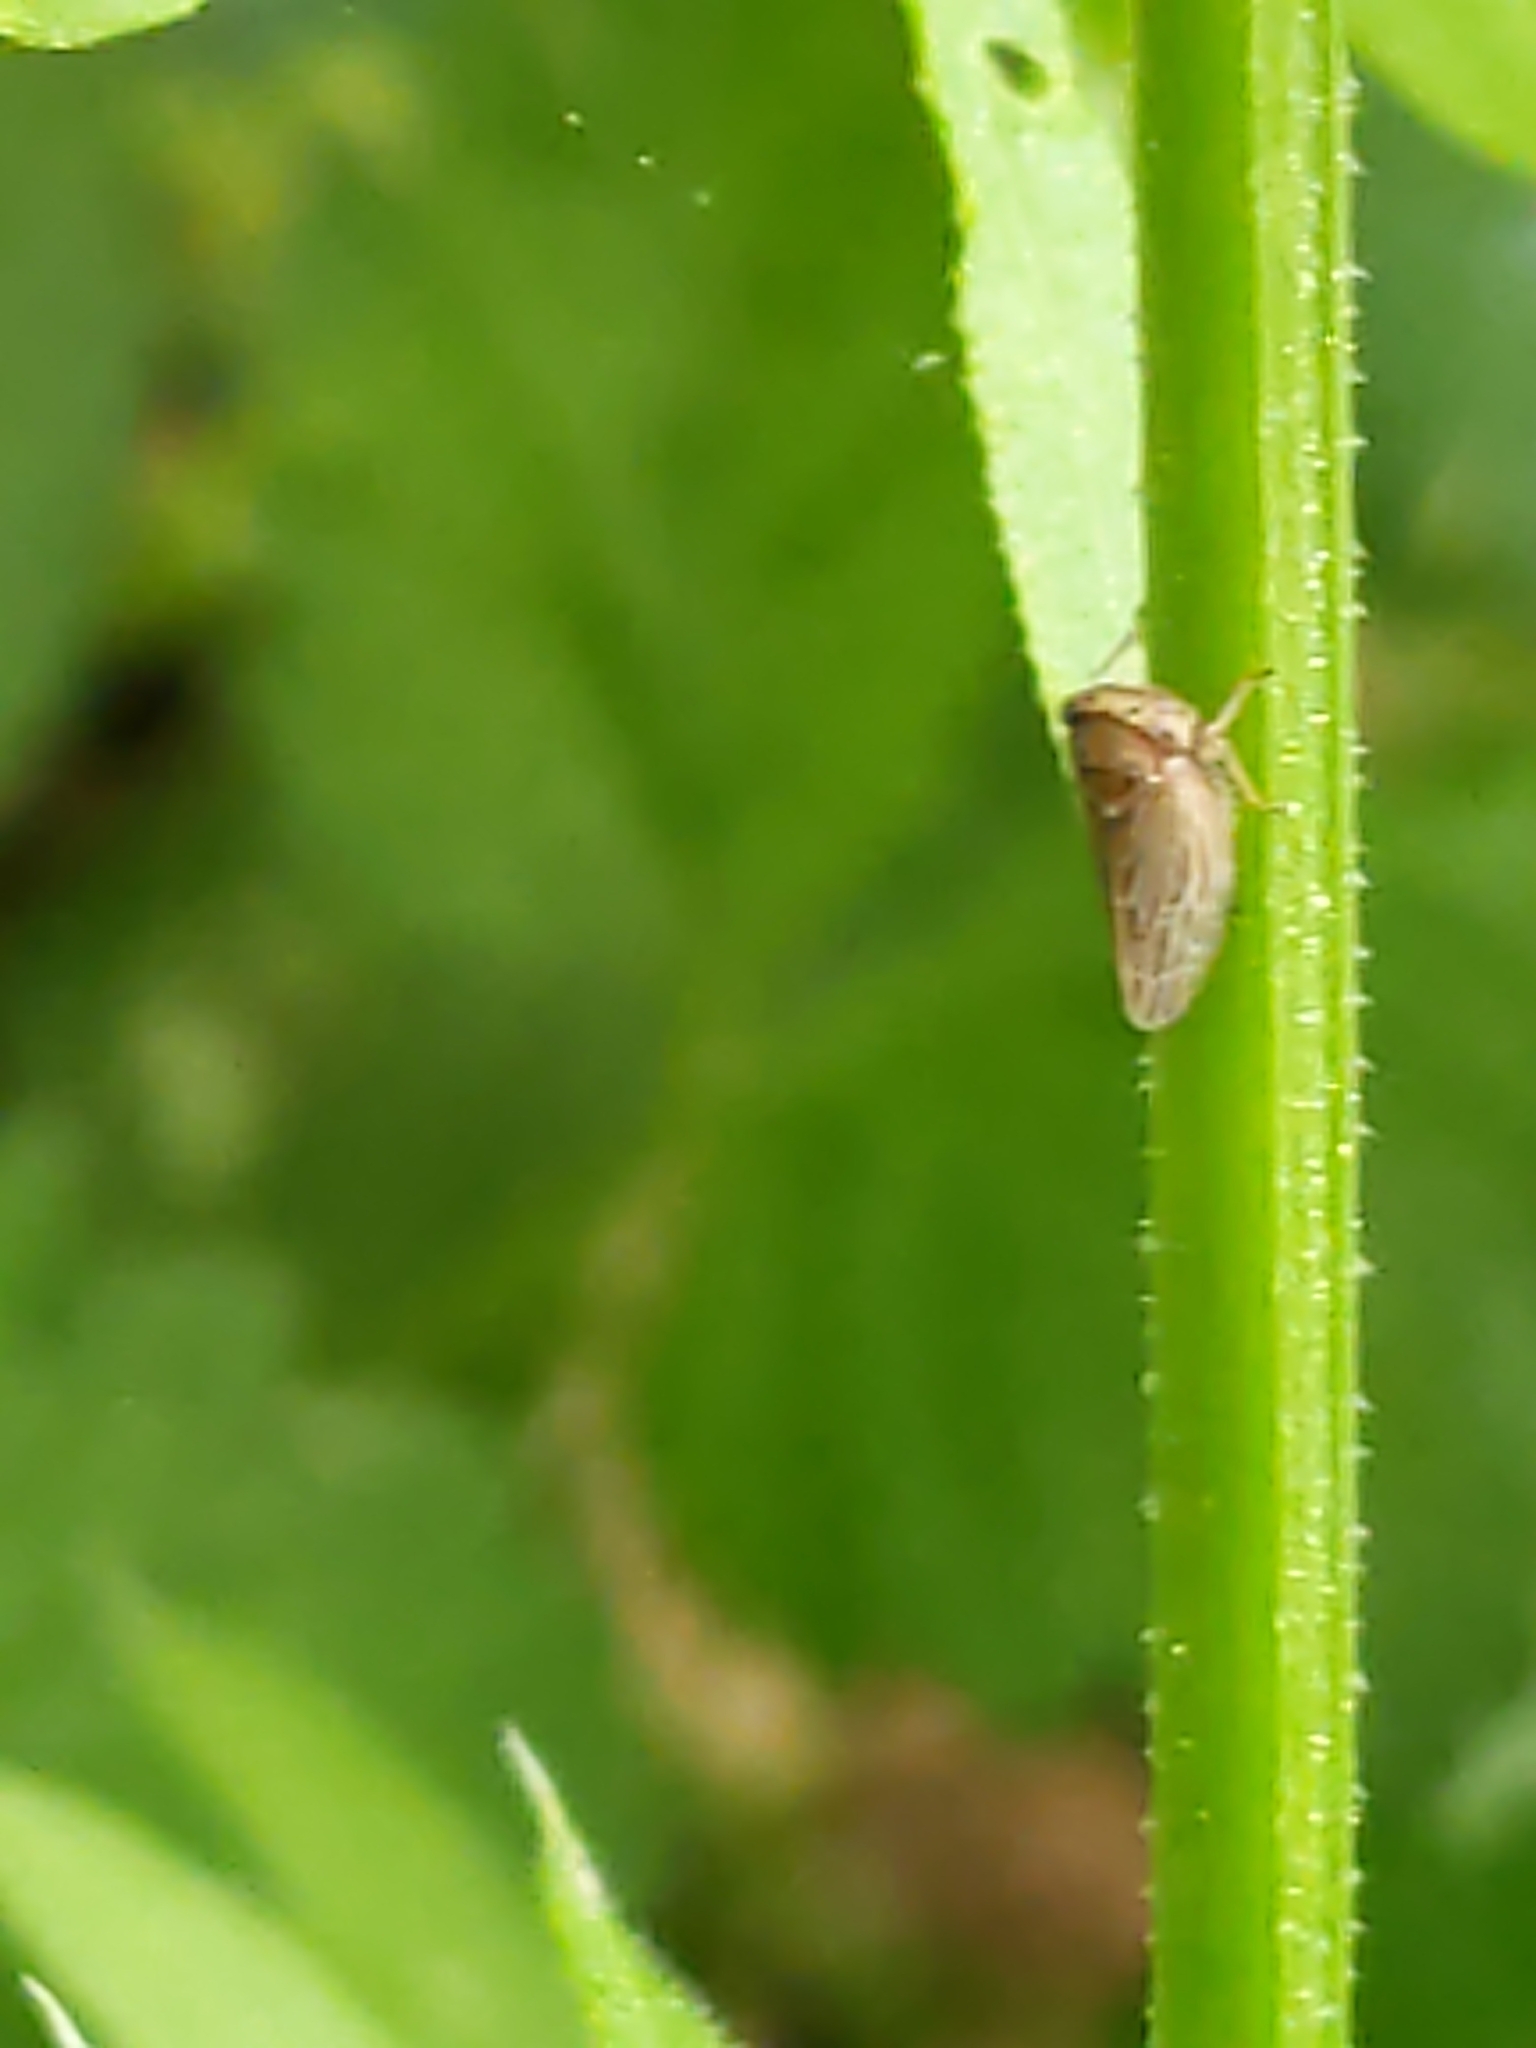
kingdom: Animalia
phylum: Arthropoda
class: Insecta
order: Hemiptera
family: Cicadellidae
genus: Agallia
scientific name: Agallia
